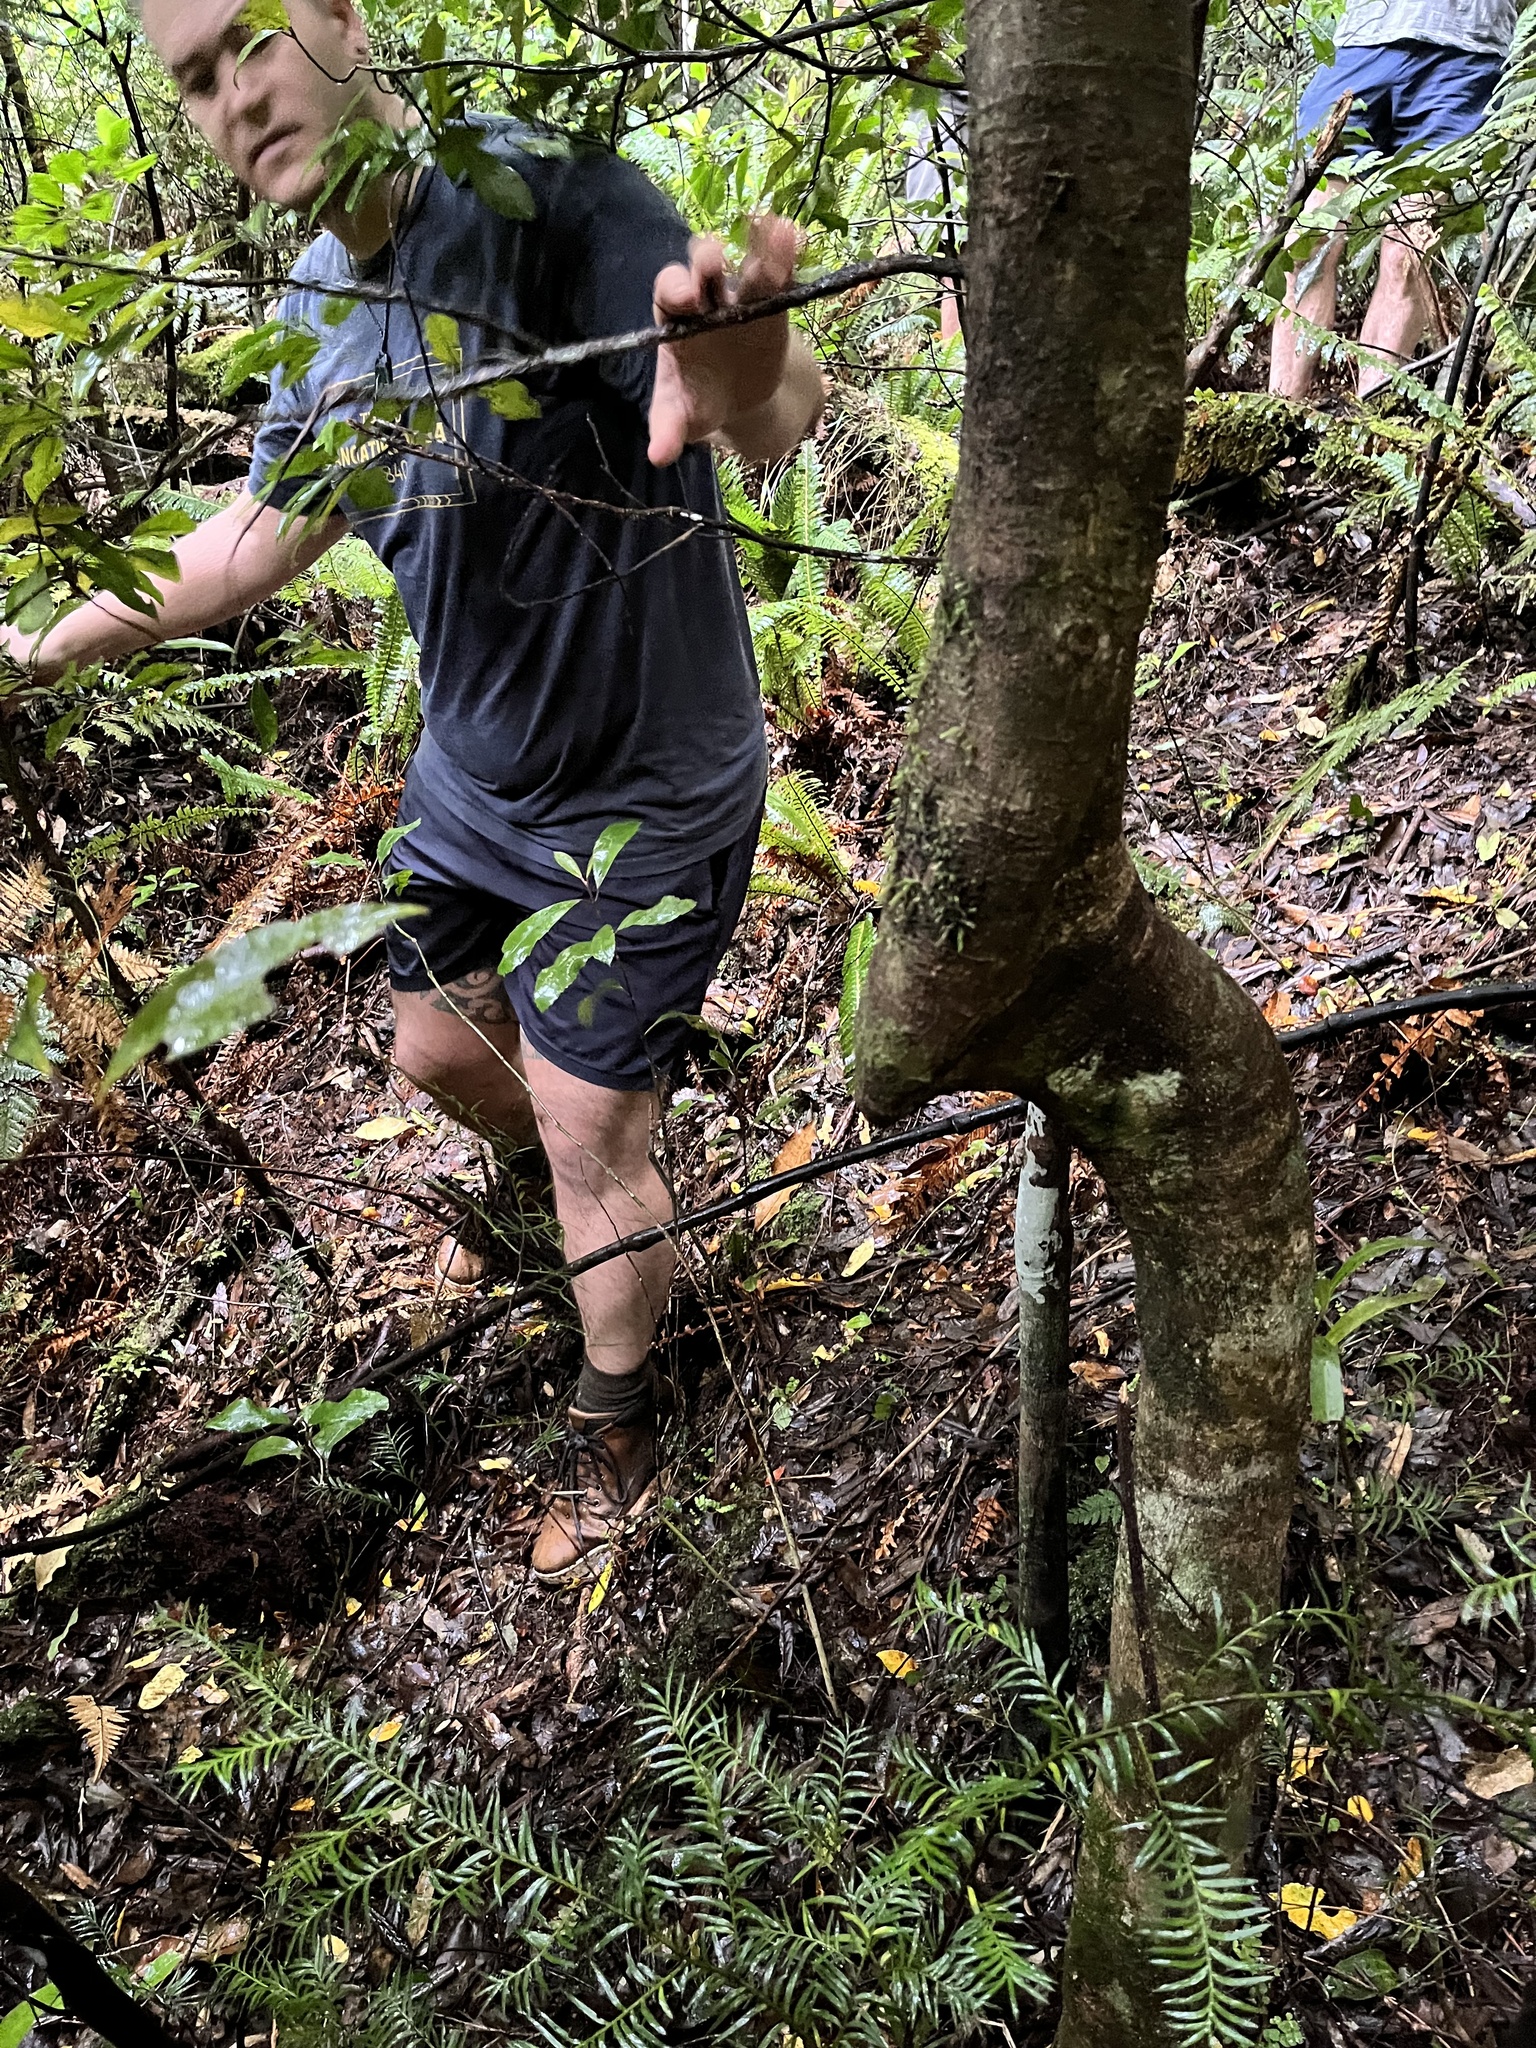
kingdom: Plantae
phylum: Tracheophyta
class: Magnoliopsida
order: Apiales
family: Araliaceae
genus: Raukaua
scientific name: Raukaua edgerleyi
